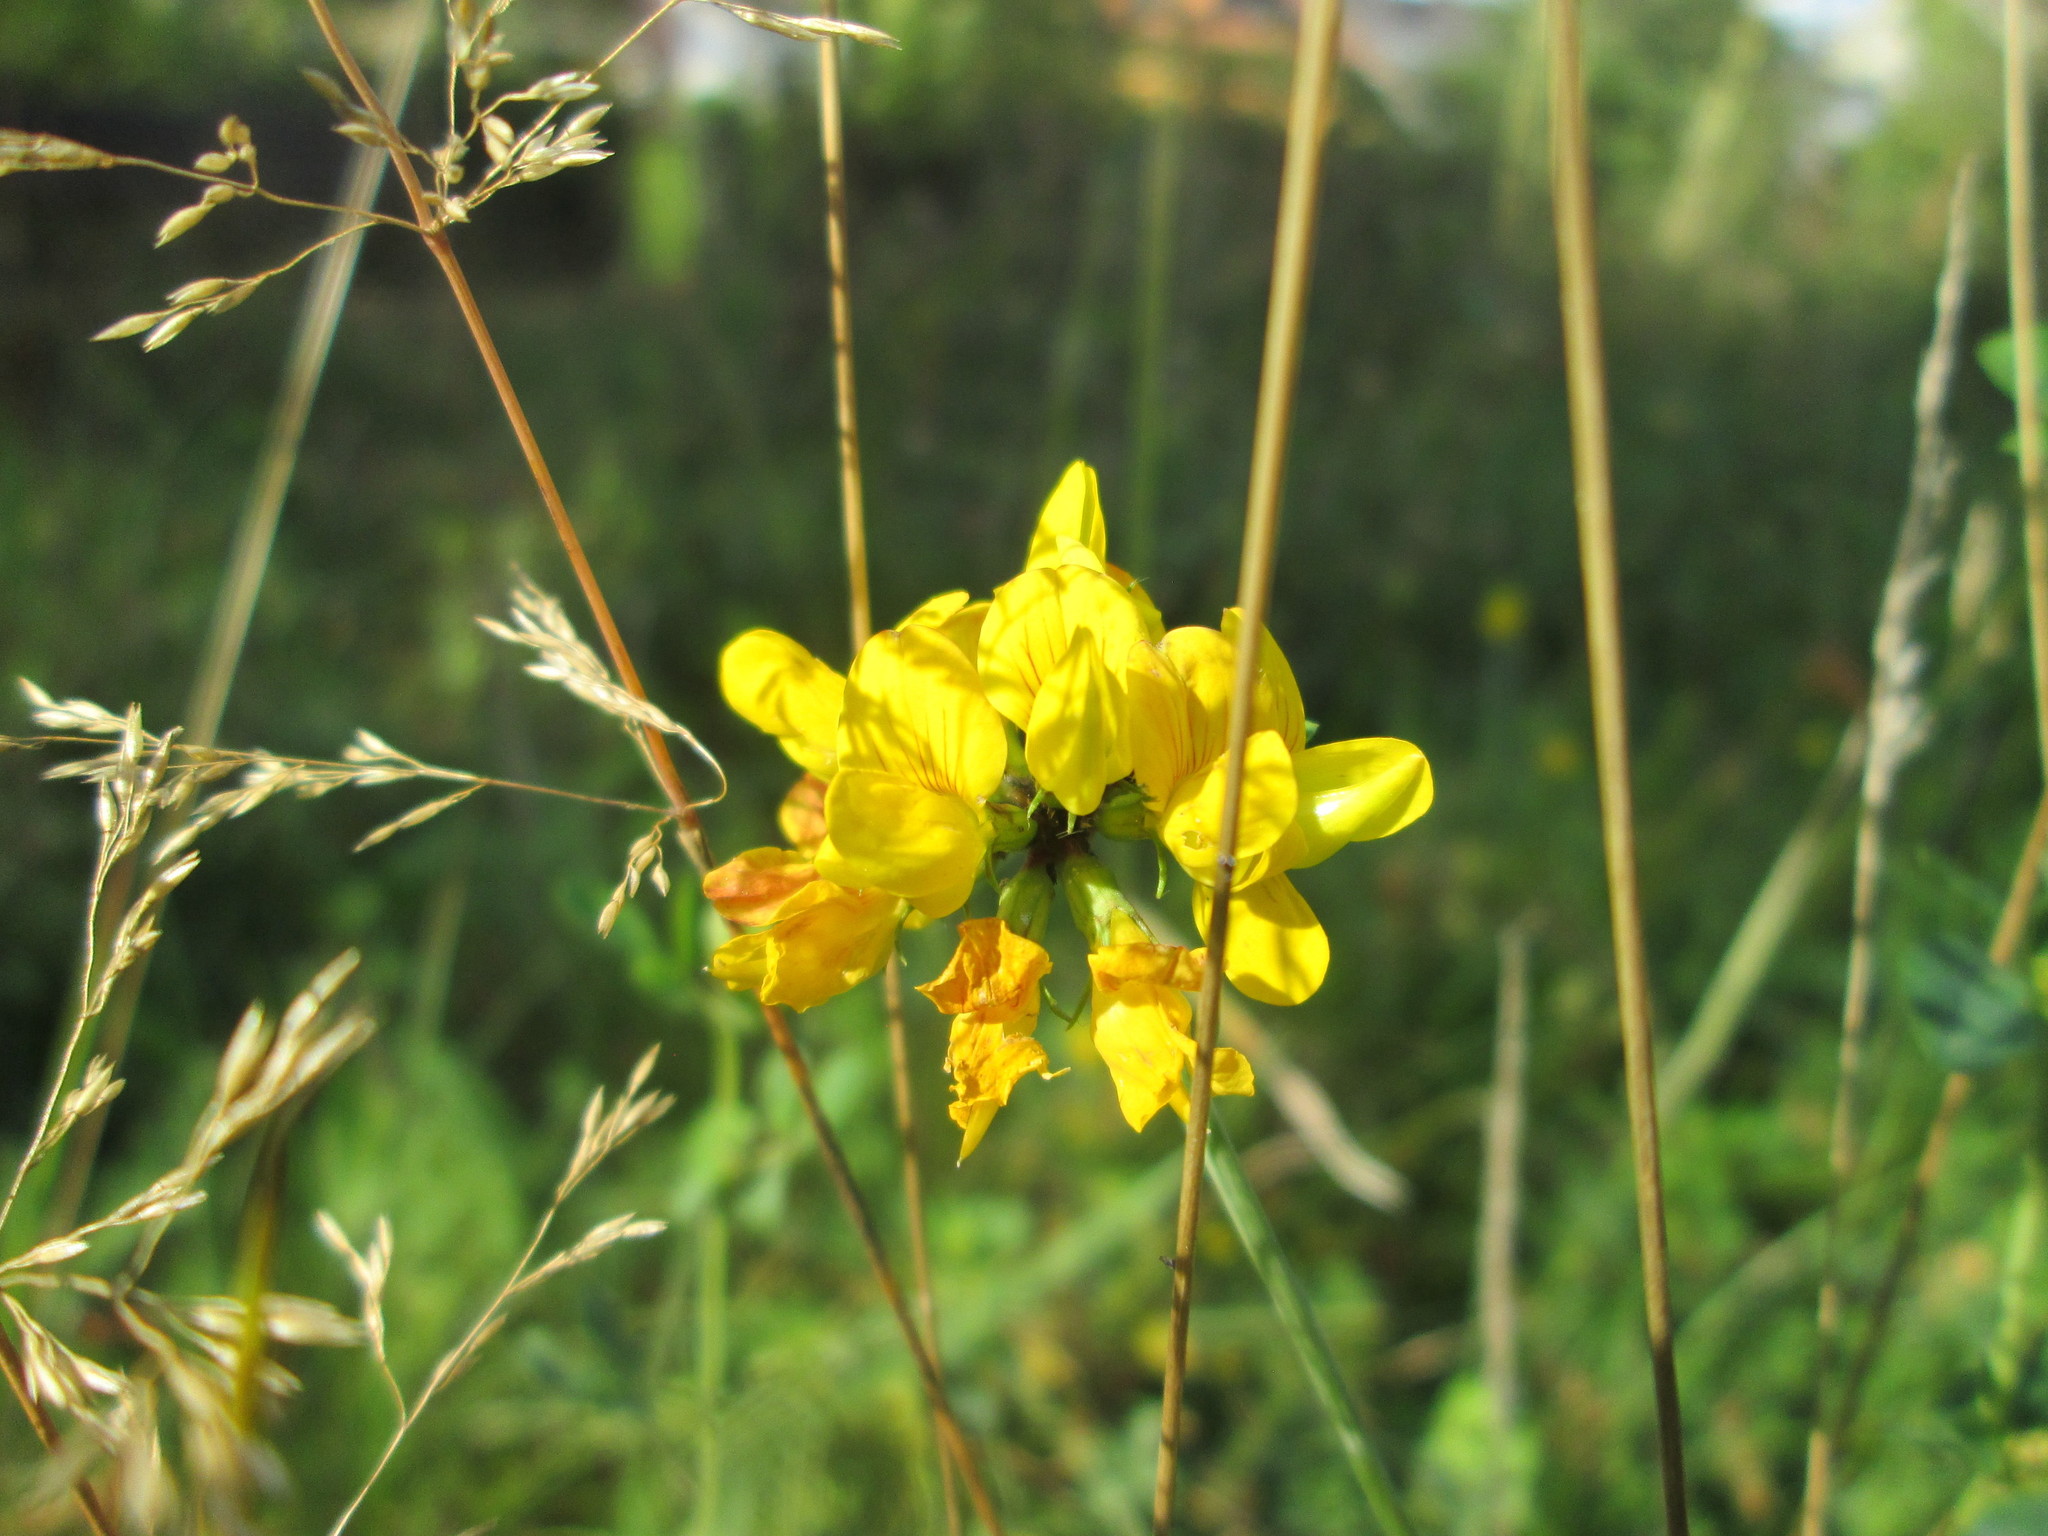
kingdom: Plantae
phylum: Tracheophyta
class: Magnoliopsida
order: Fabales
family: Fabaceae
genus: Lotus
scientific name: Lotus pedunculatus
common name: Greater birdsfoot-trefoil
